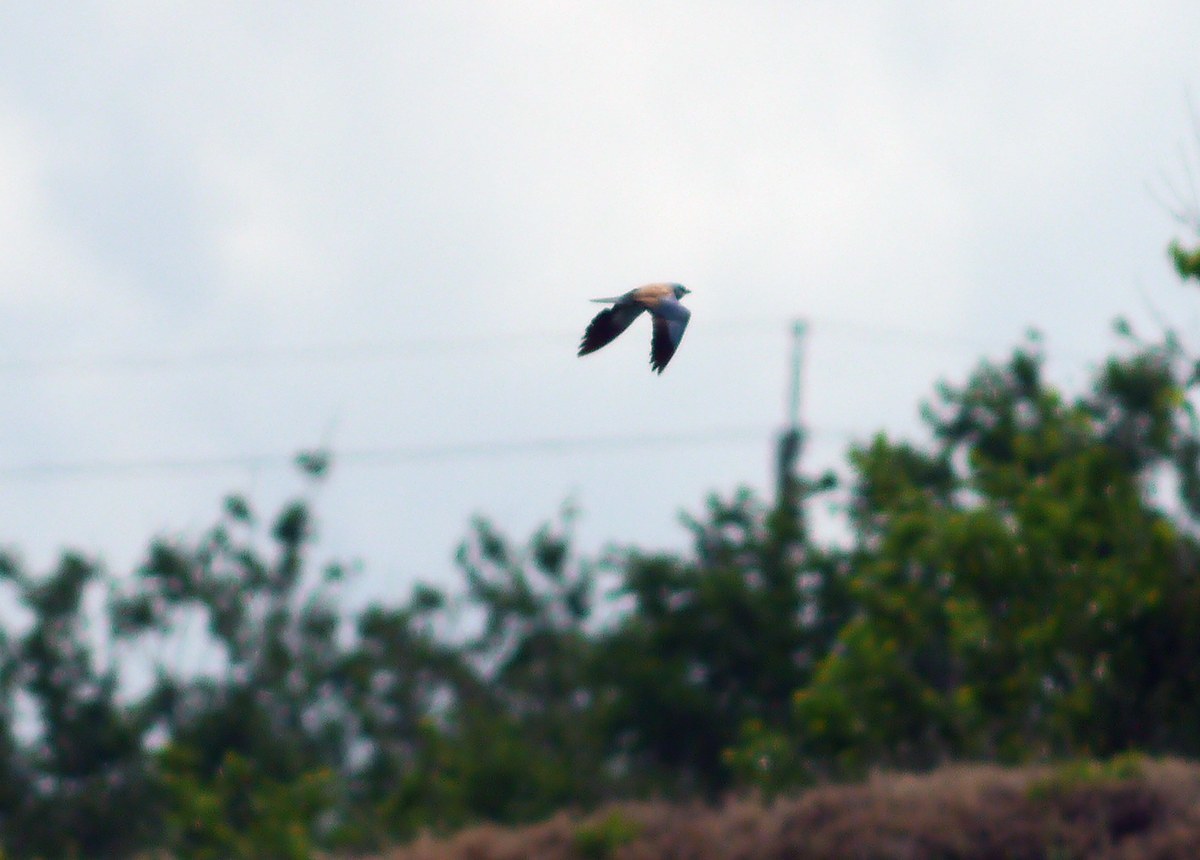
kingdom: Animalia
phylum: Chordata
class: Aves
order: Coraciiformes
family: Coraciidae
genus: Coracias
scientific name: Coracias garrulus
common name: European roller
